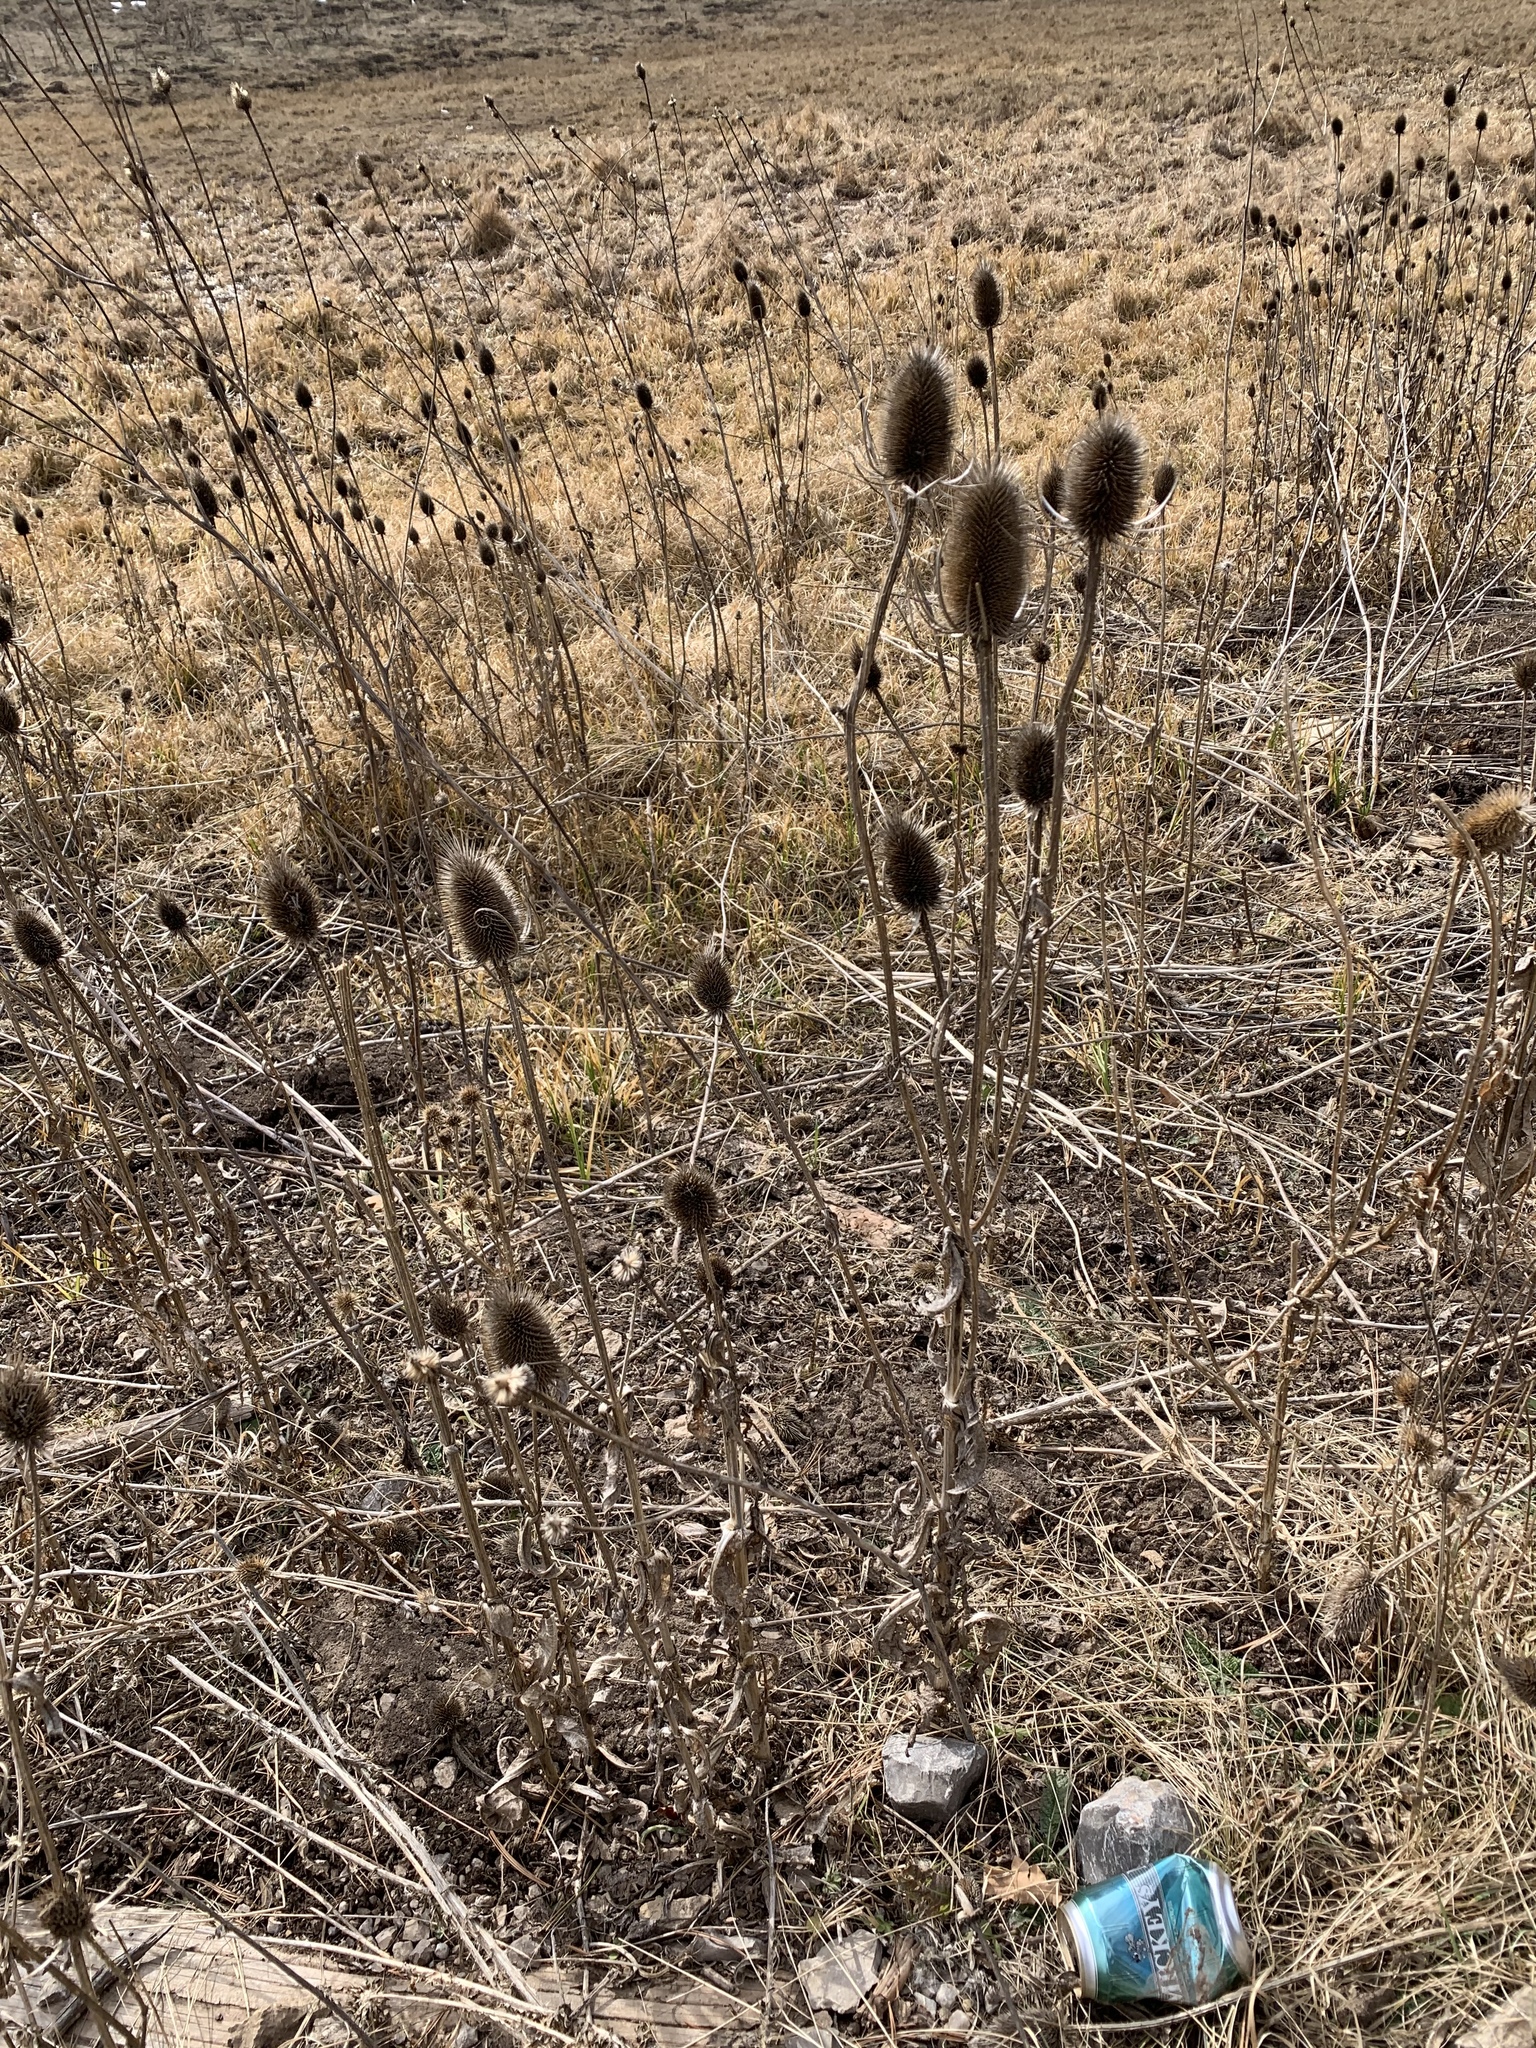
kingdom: Plantae
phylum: Tracheophyta
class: Magnoliopsida
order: Dipsacales
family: Caprifoliaceae
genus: Dipsacus
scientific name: Dipsacus fullonum
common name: Teasel
